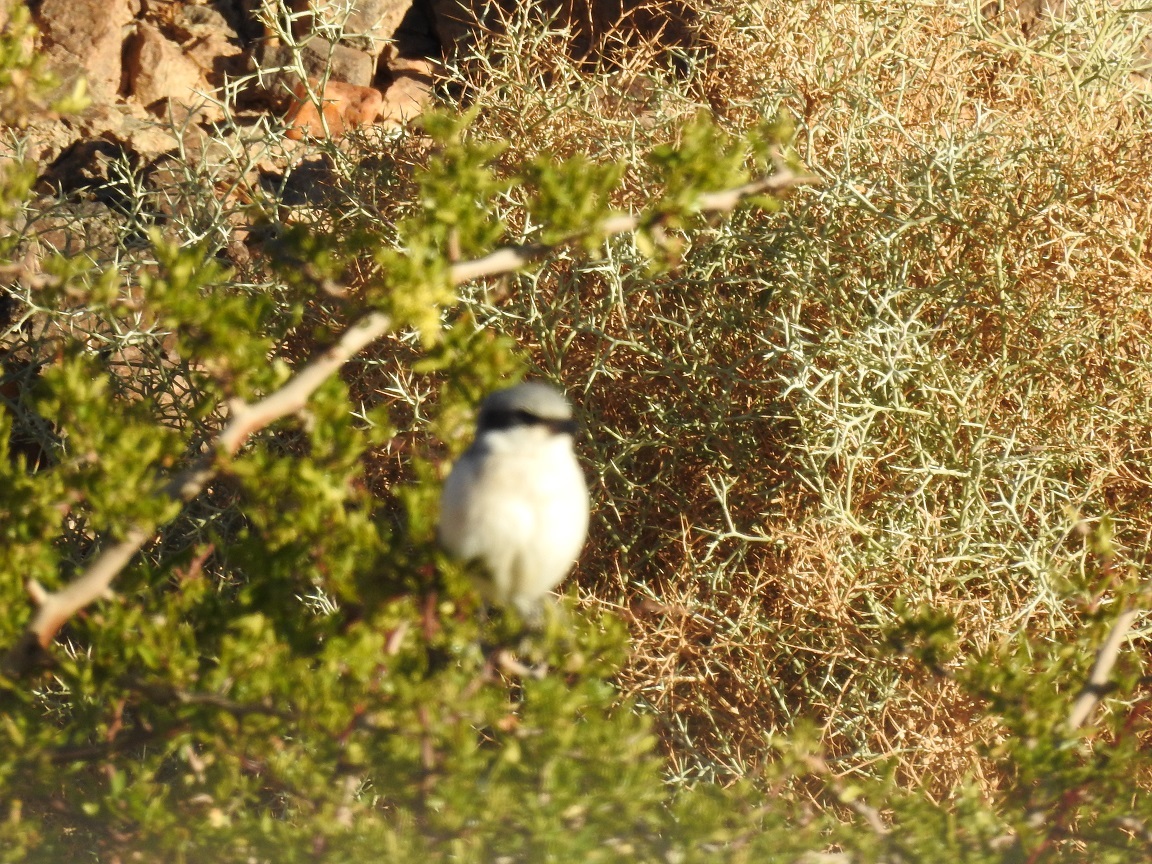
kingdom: Animalia
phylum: Chordata
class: Aves
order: Passeriformes
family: Laniidae
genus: Lanius
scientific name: Lanius excubitor
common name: Great grey shrike
